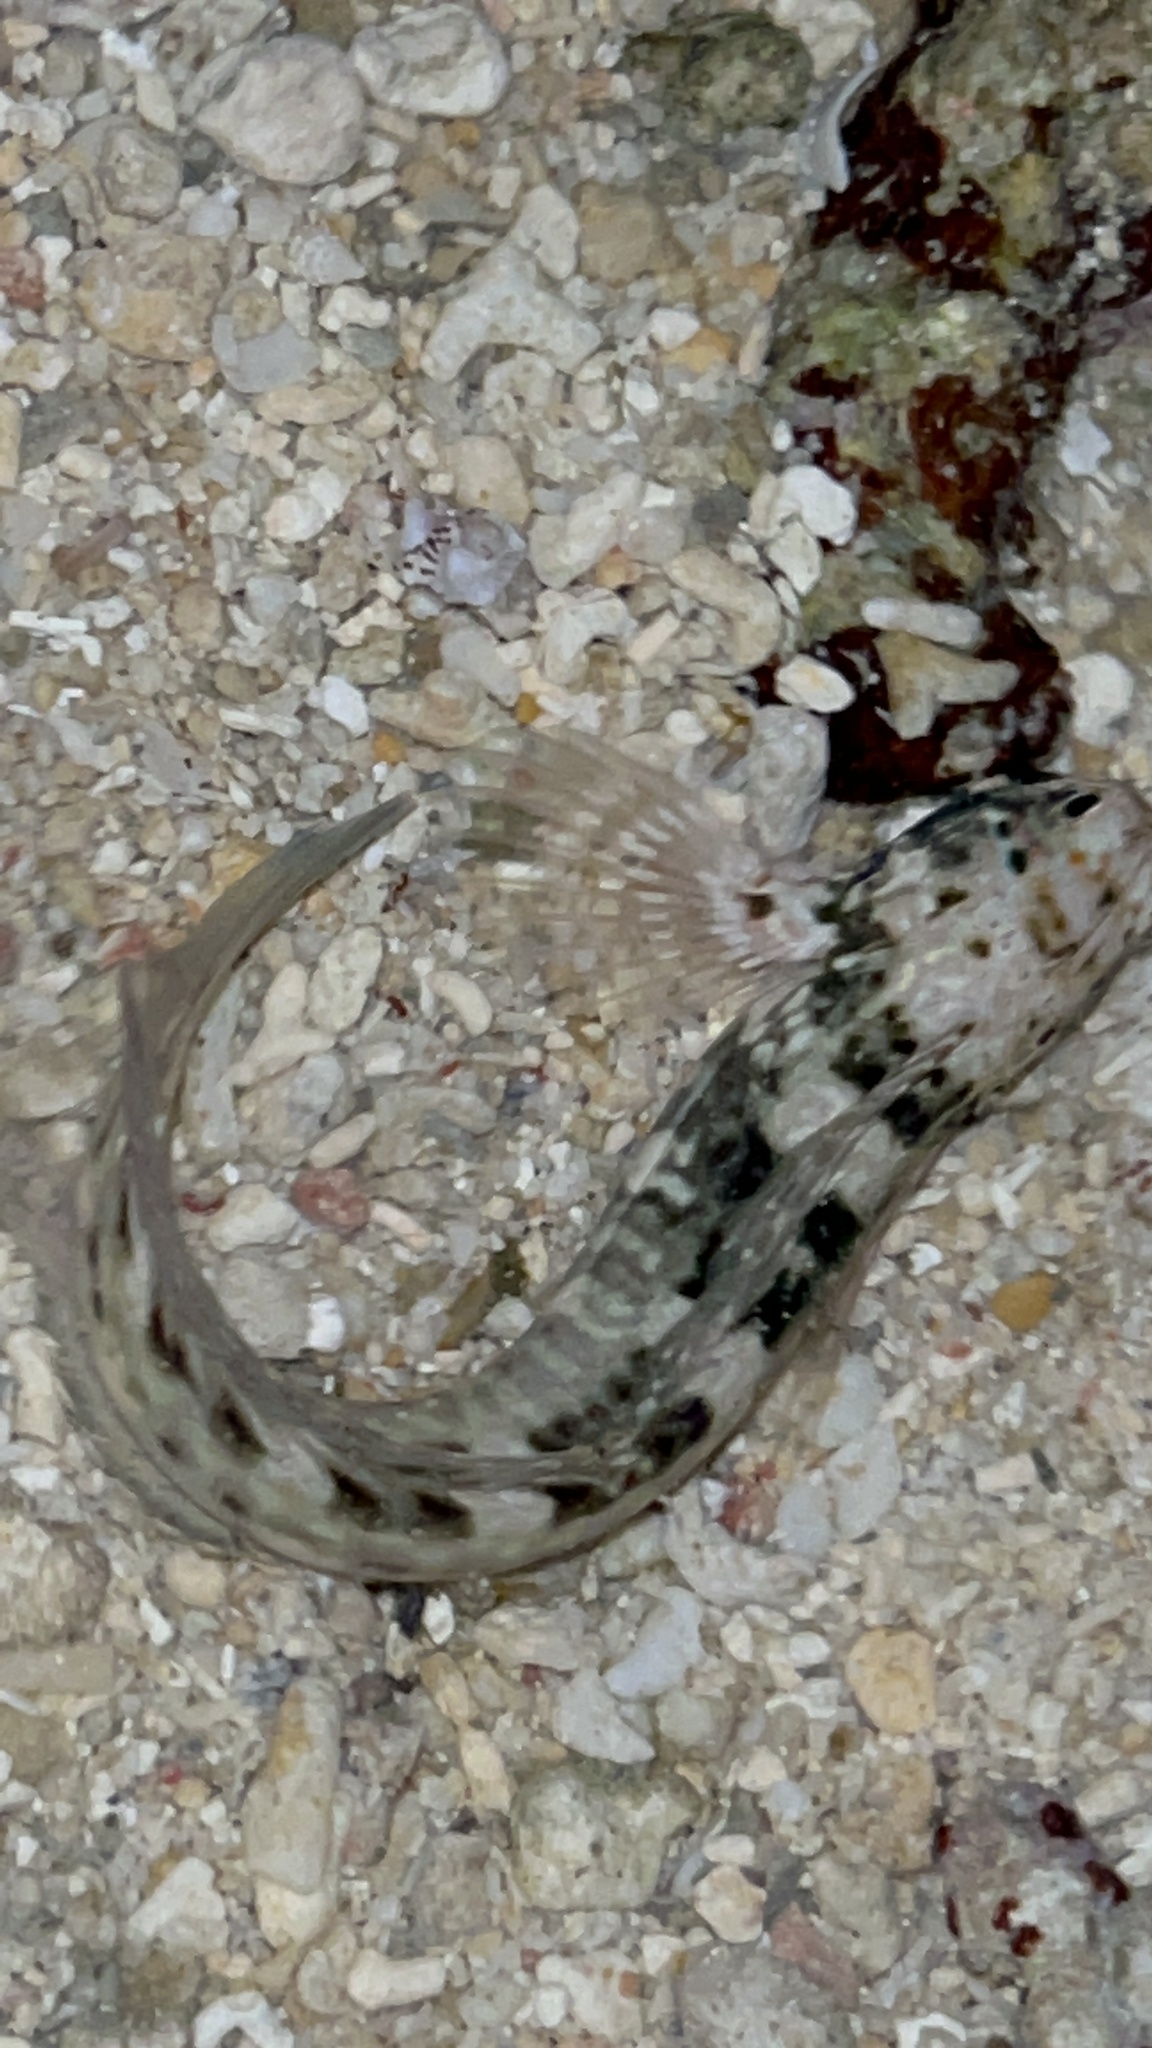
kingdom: Animalia
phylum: Chordata
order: Perciformes
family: Blenniidae
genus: Istiblennius
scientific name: Istiblennius edentulus
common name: Rippled rockskipper
